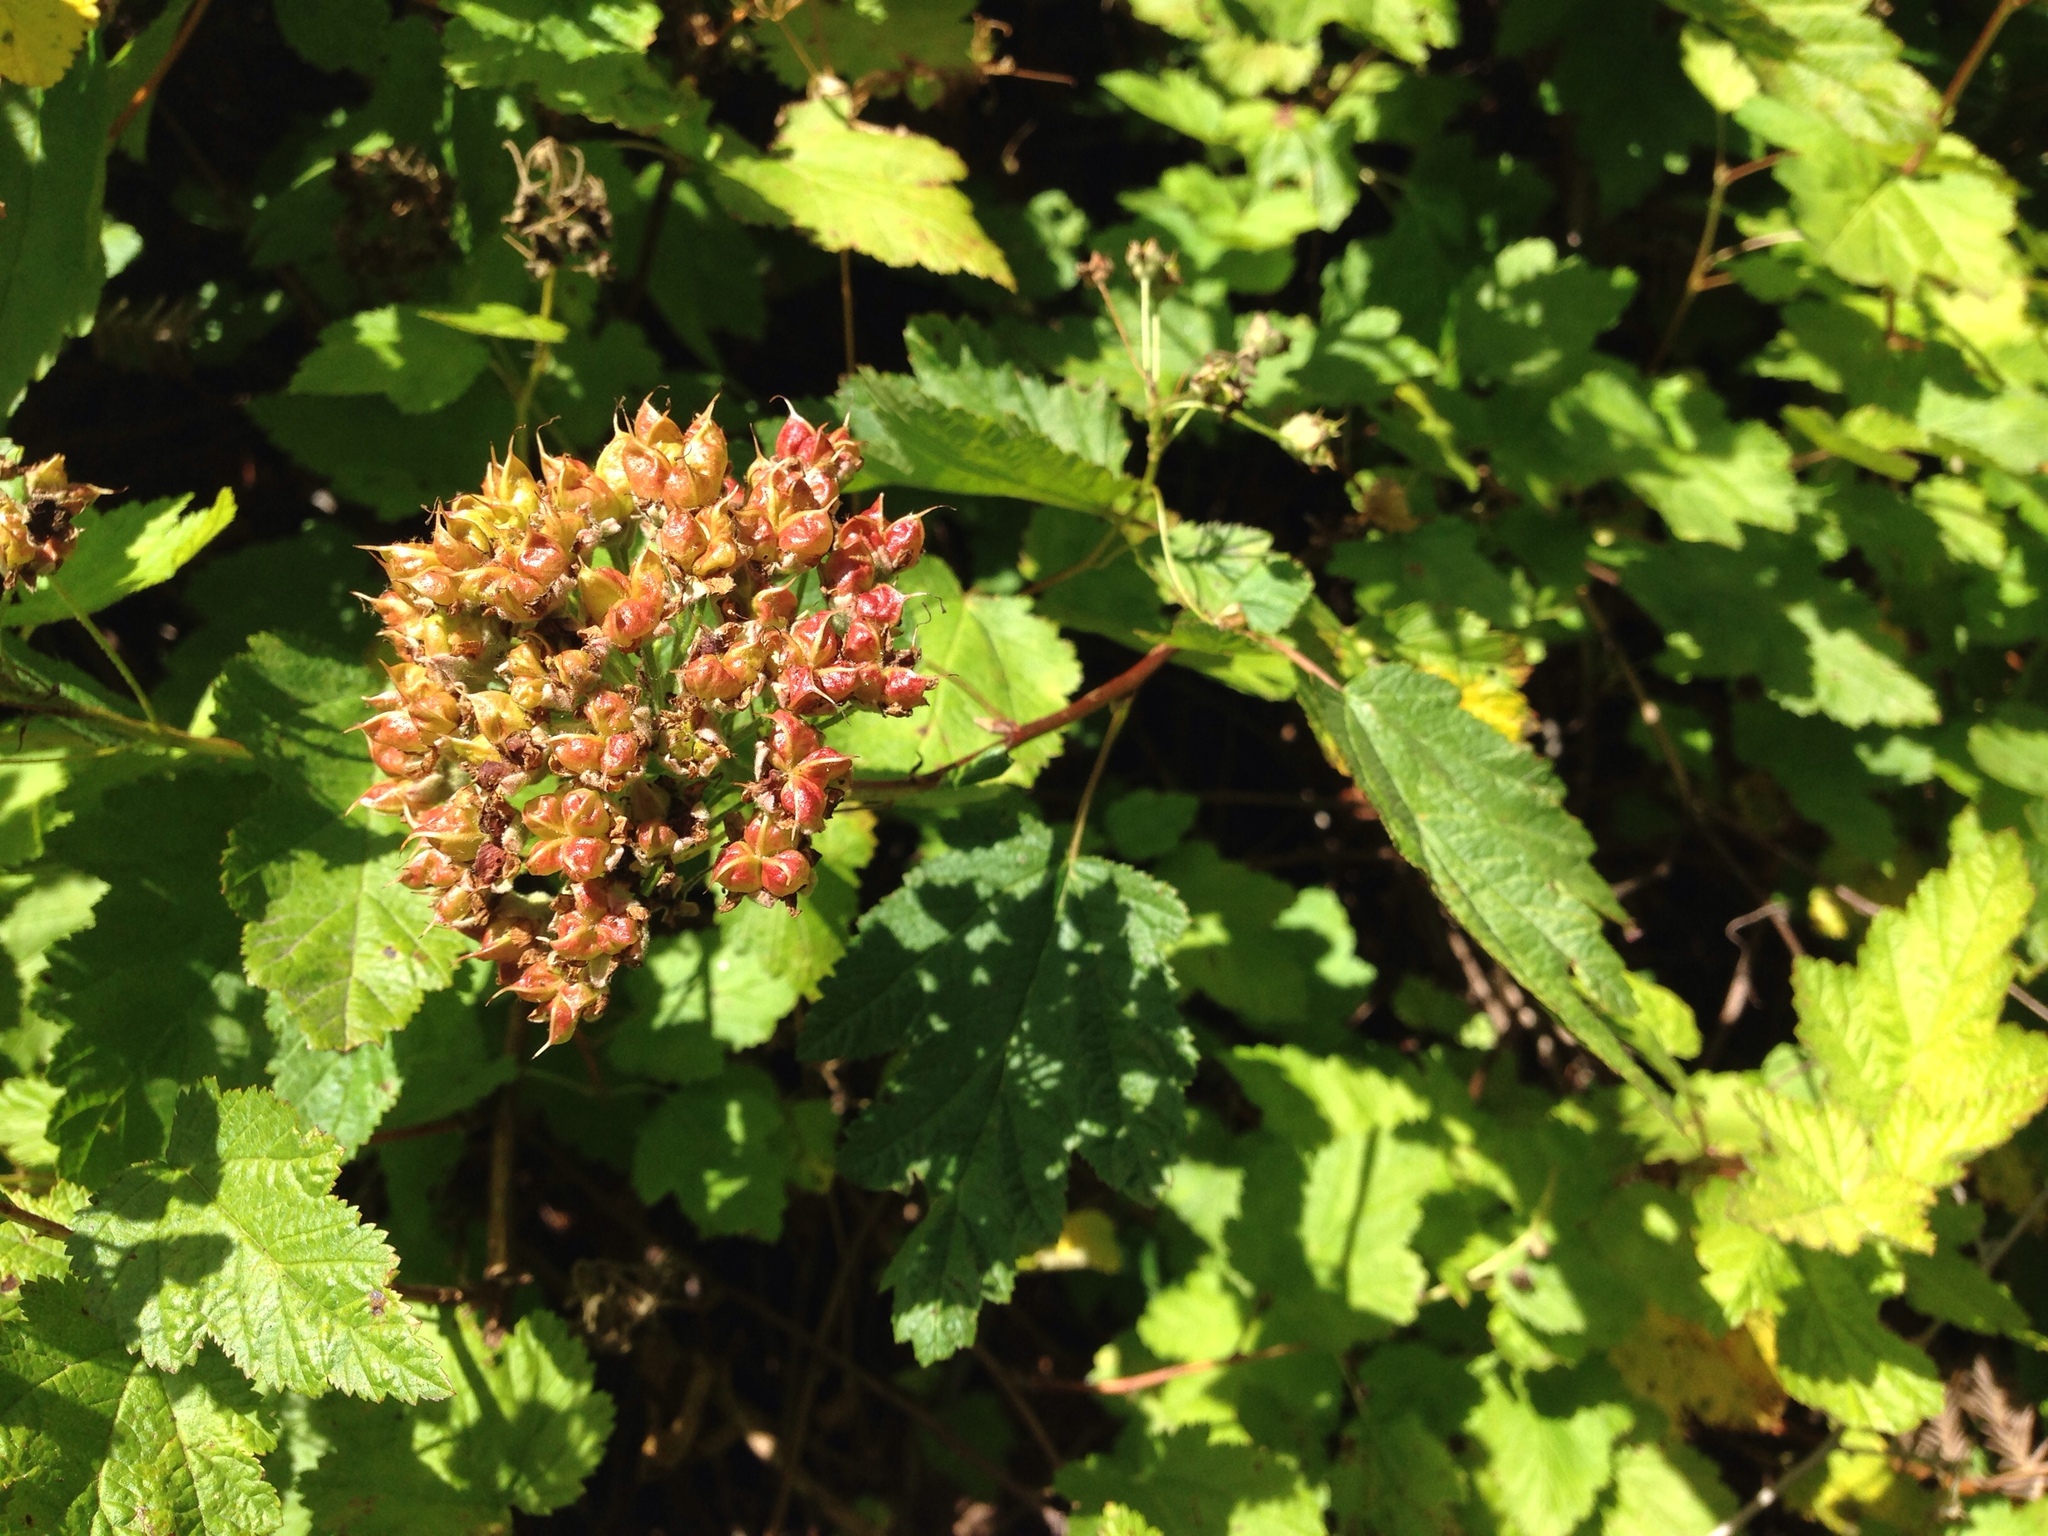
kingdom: Plantae
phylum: Tracheophyta
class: Magnoliopsida
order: Rosales
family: Rosaceae
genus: Physocarpus
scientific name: Physocarpus capitatus
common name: Pacific ninebark
